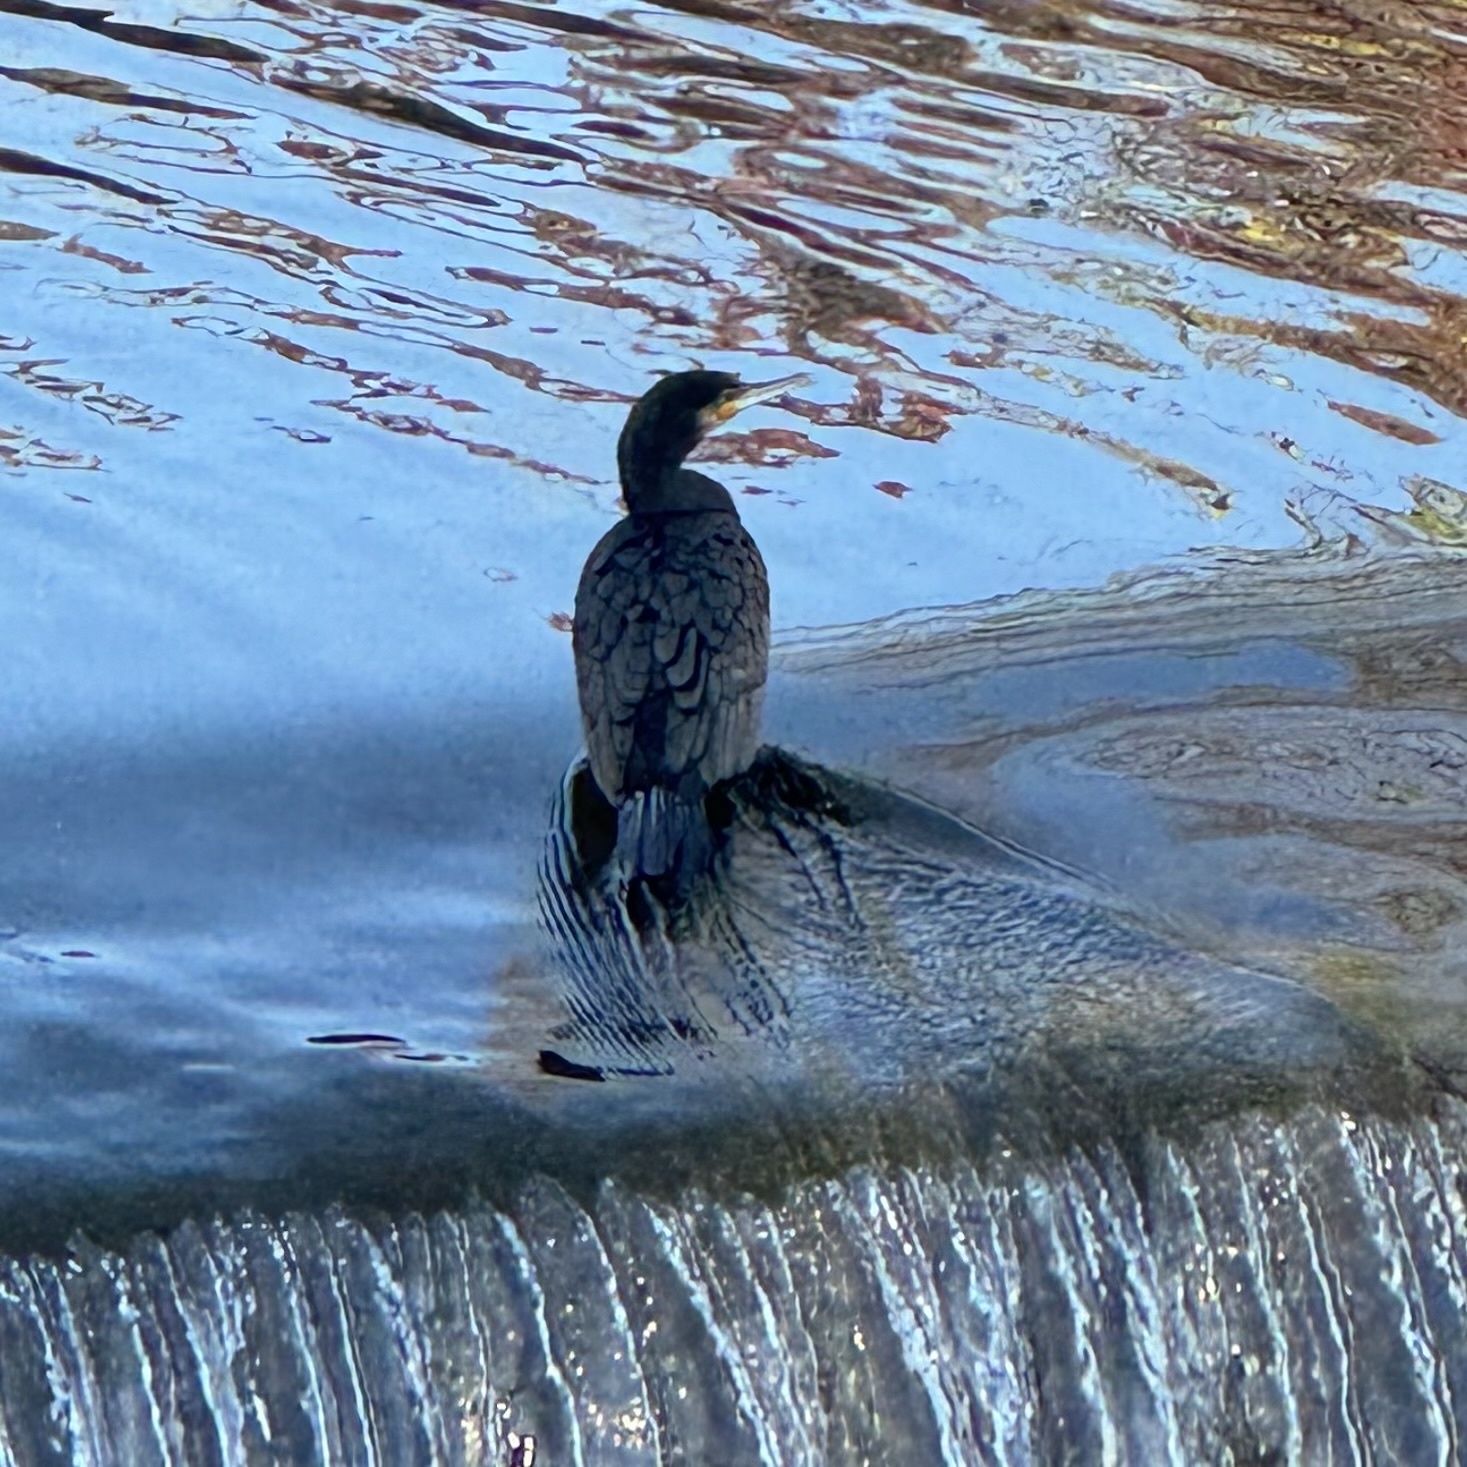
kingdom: Animalia
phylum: Chordata
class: Aves
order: Suliformes
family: Phalacrocoracidae
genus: Phalacrocorax
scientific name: Phalacrocorax carbo
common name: Great cormorant
